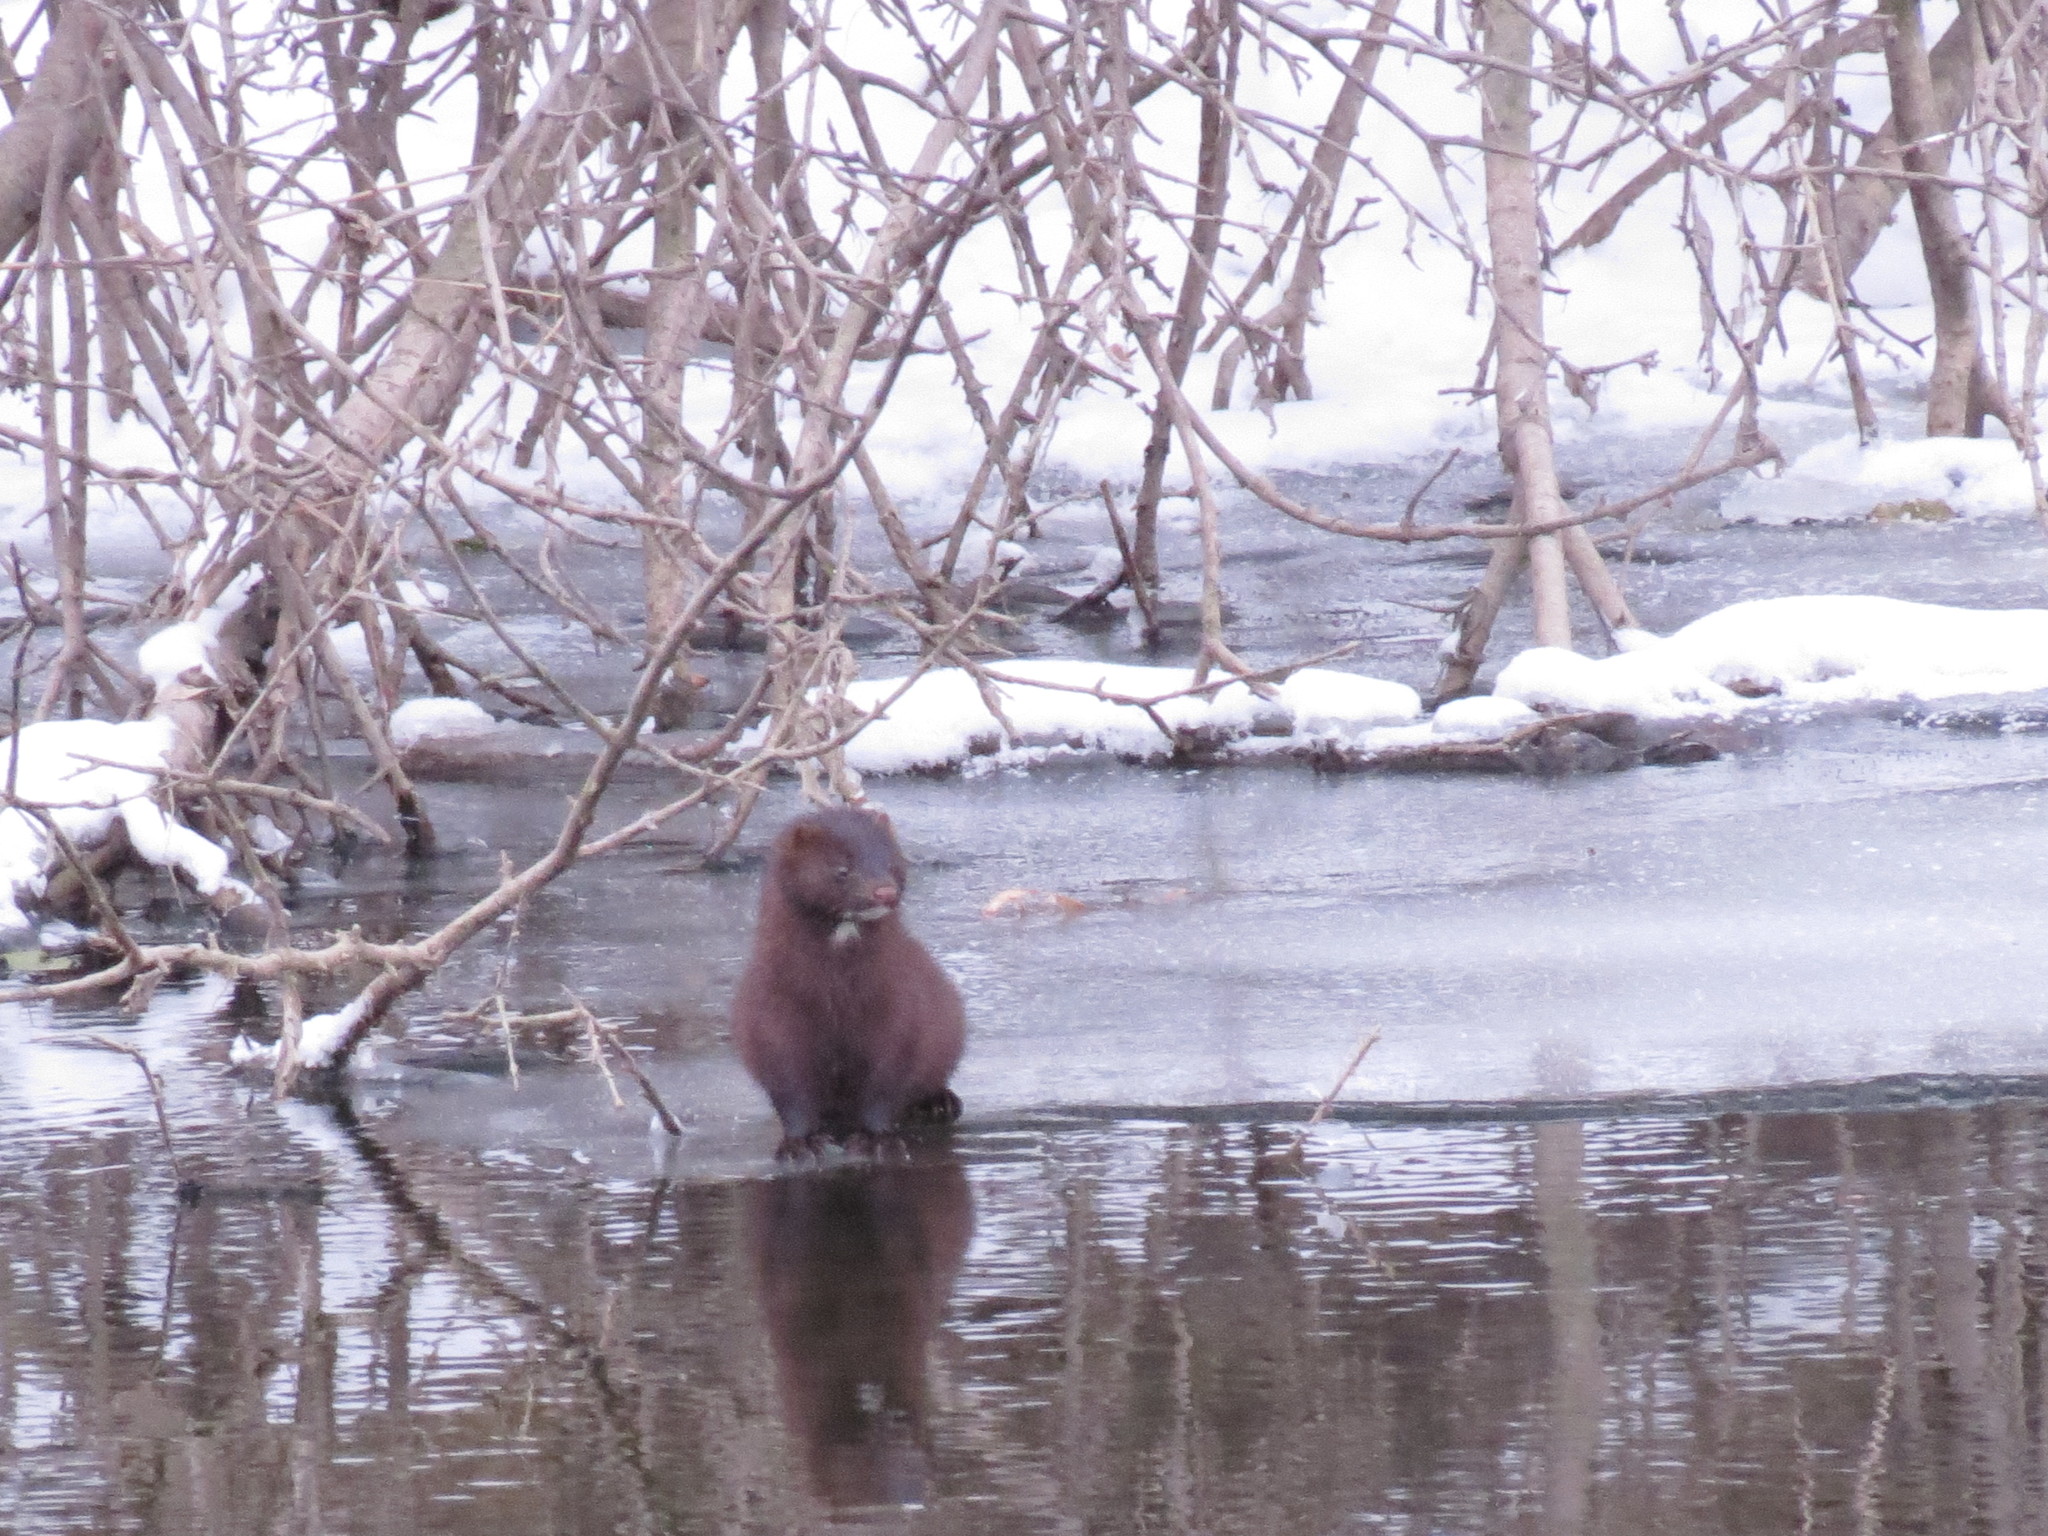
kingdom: Animalia
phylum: Chordata
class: Mammalia
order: Carnivora
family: Mustelidae
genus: Mustela
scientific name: Mustela
